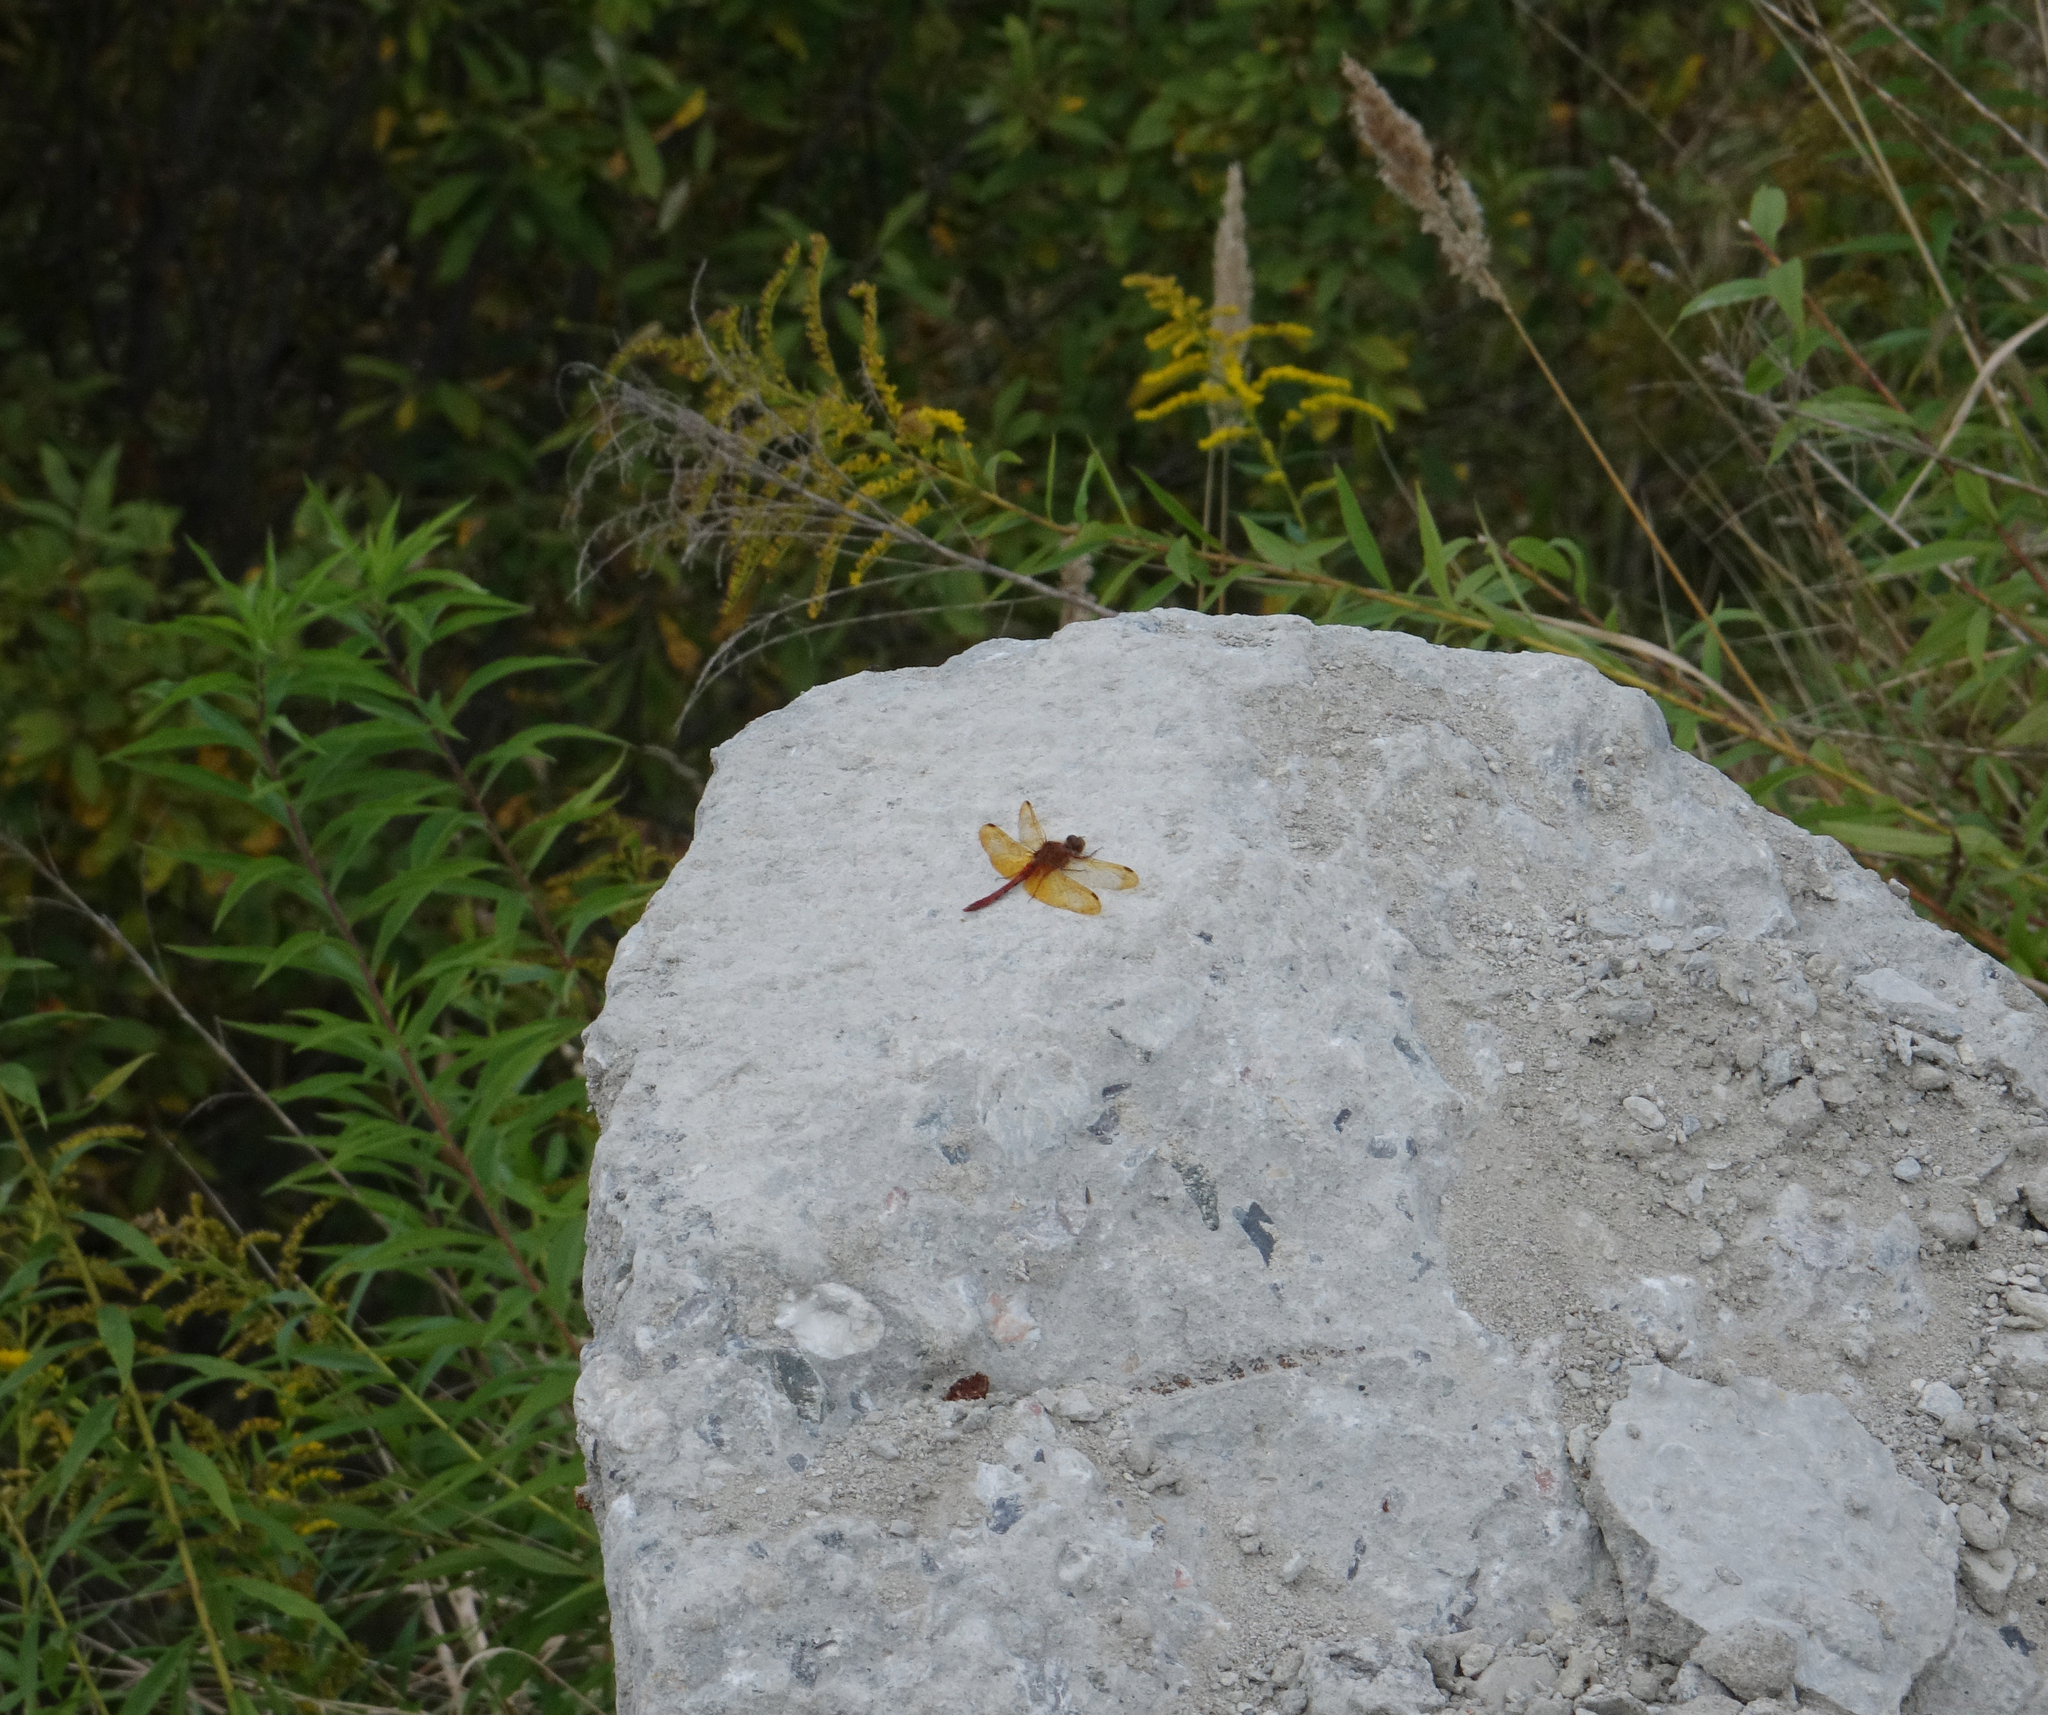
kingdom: Animalia
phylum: Arthropoda
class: Insecta
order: Odonata
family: Libellulidae
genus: Sympetrum
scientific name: Sympetrum croceolum
